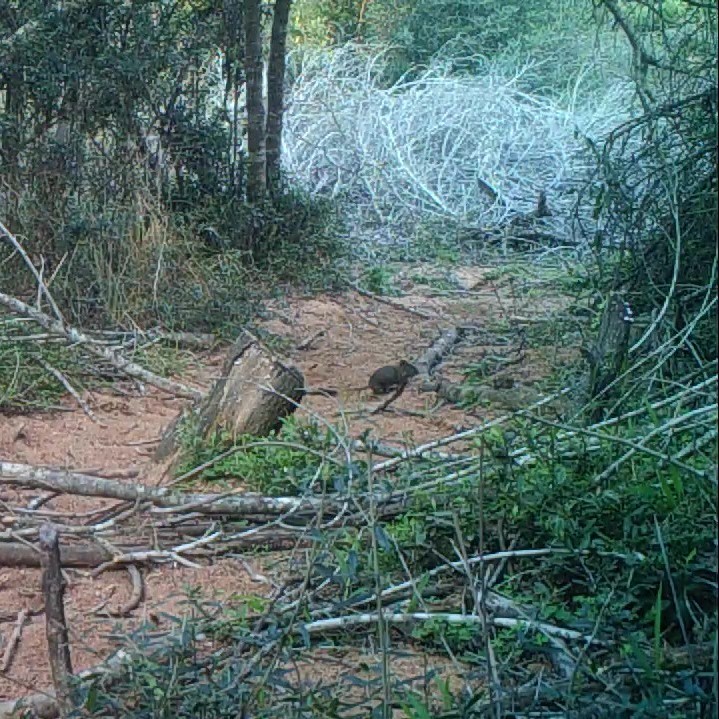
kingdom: Animalia
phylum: Chordata
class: Mammalia
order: Rodentia
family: Muridae
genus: Otomys
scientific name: Otomys irroratus
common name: Southern african vlei rat
